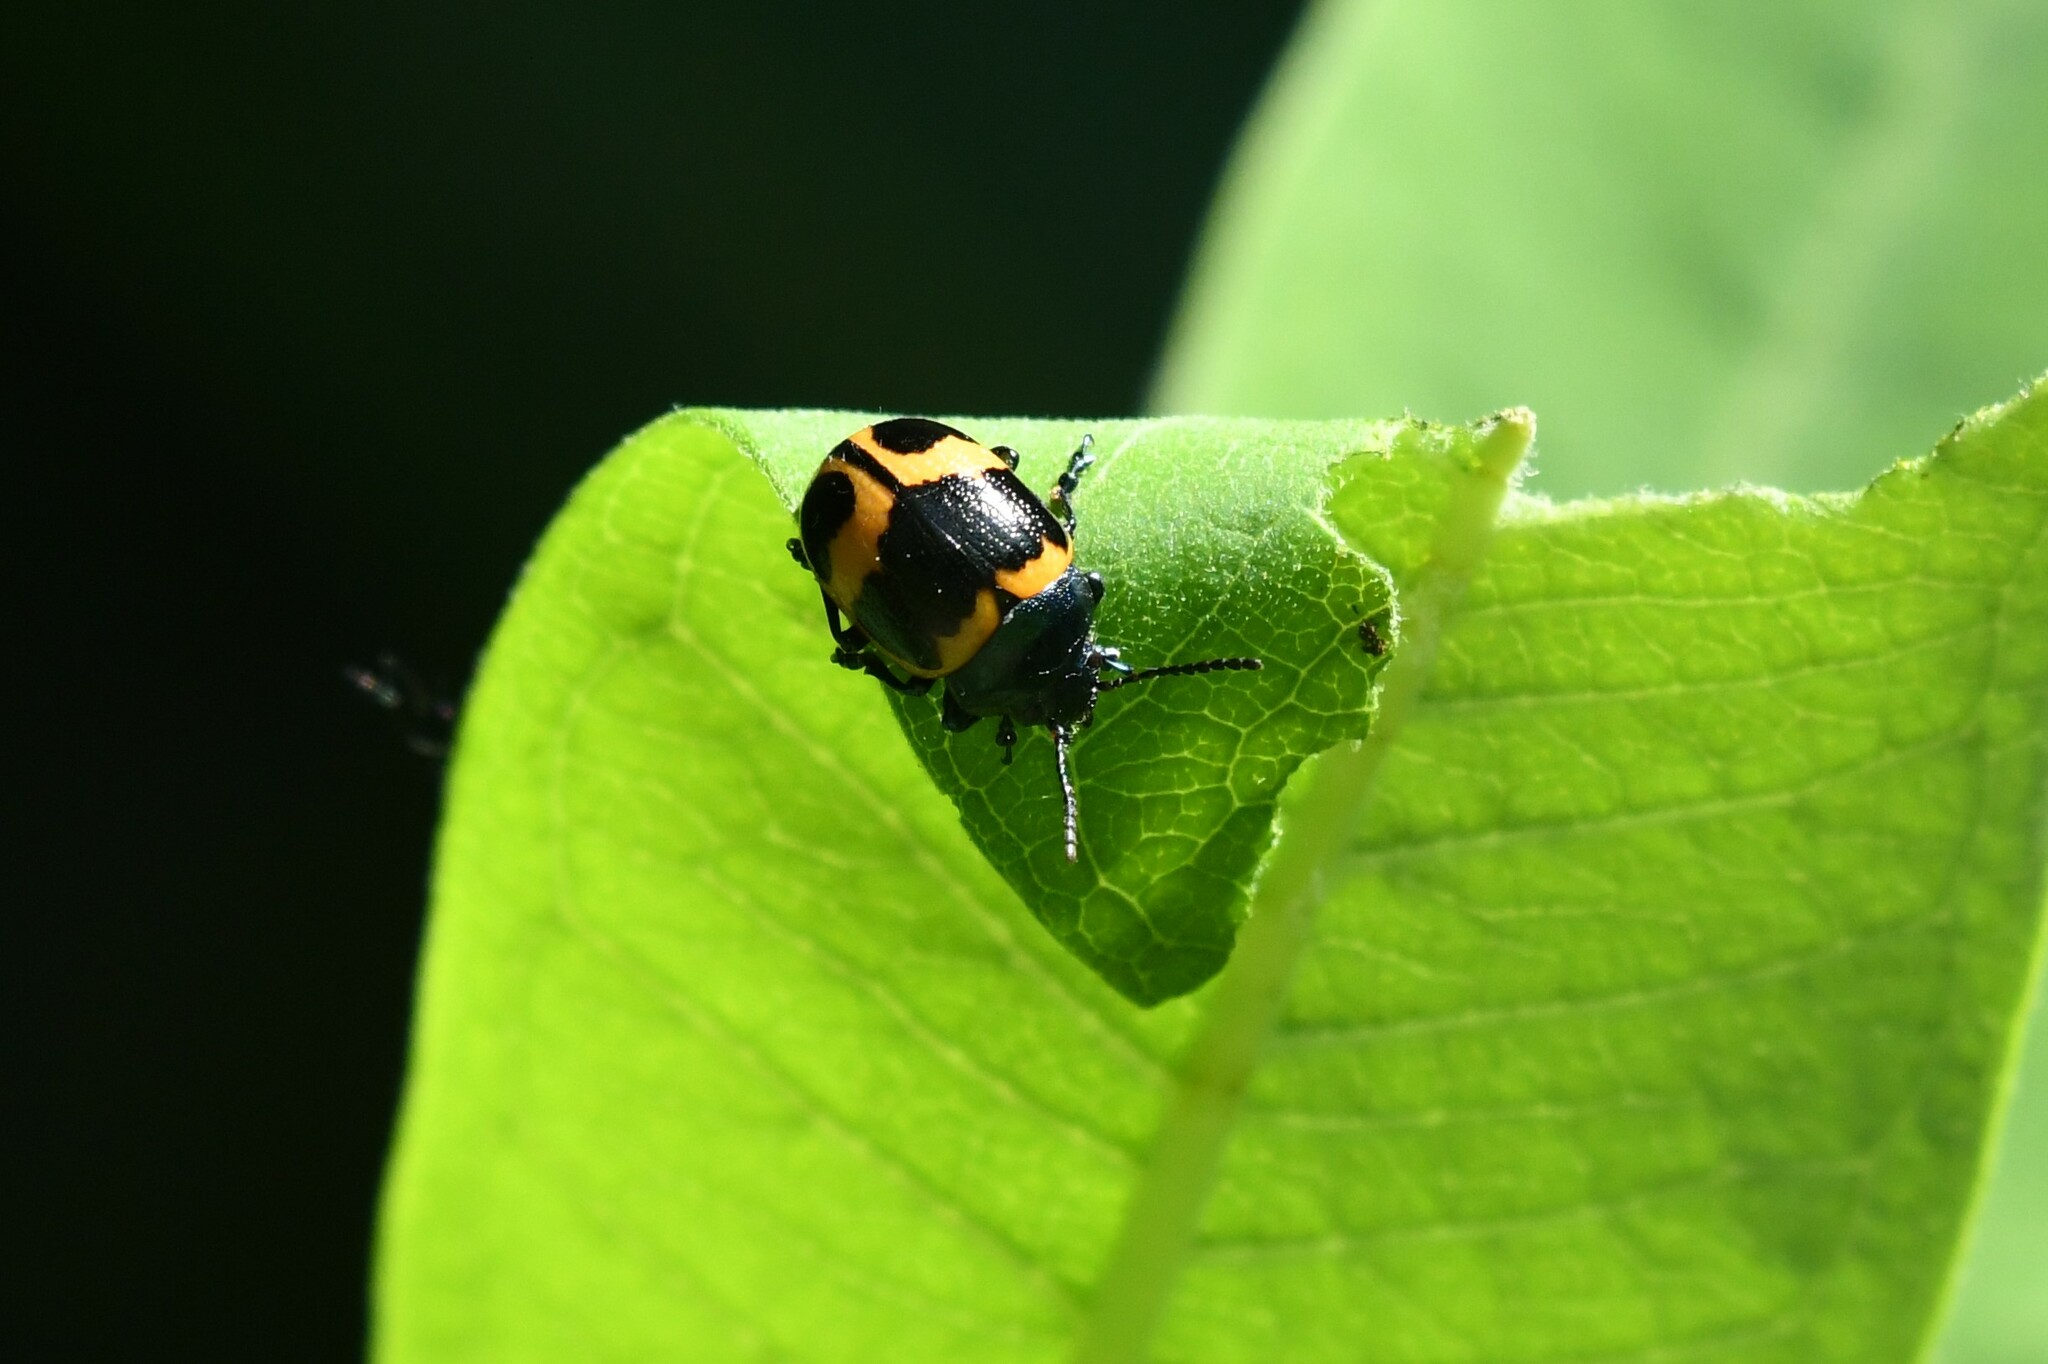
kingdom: Animalia
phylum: Arthropoda
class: Insecta
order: Coleoptera
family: Chrysomelidae
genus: Labidomera
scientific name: Labidomera clivicollis
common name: Swamp milkweed leaf beetle
